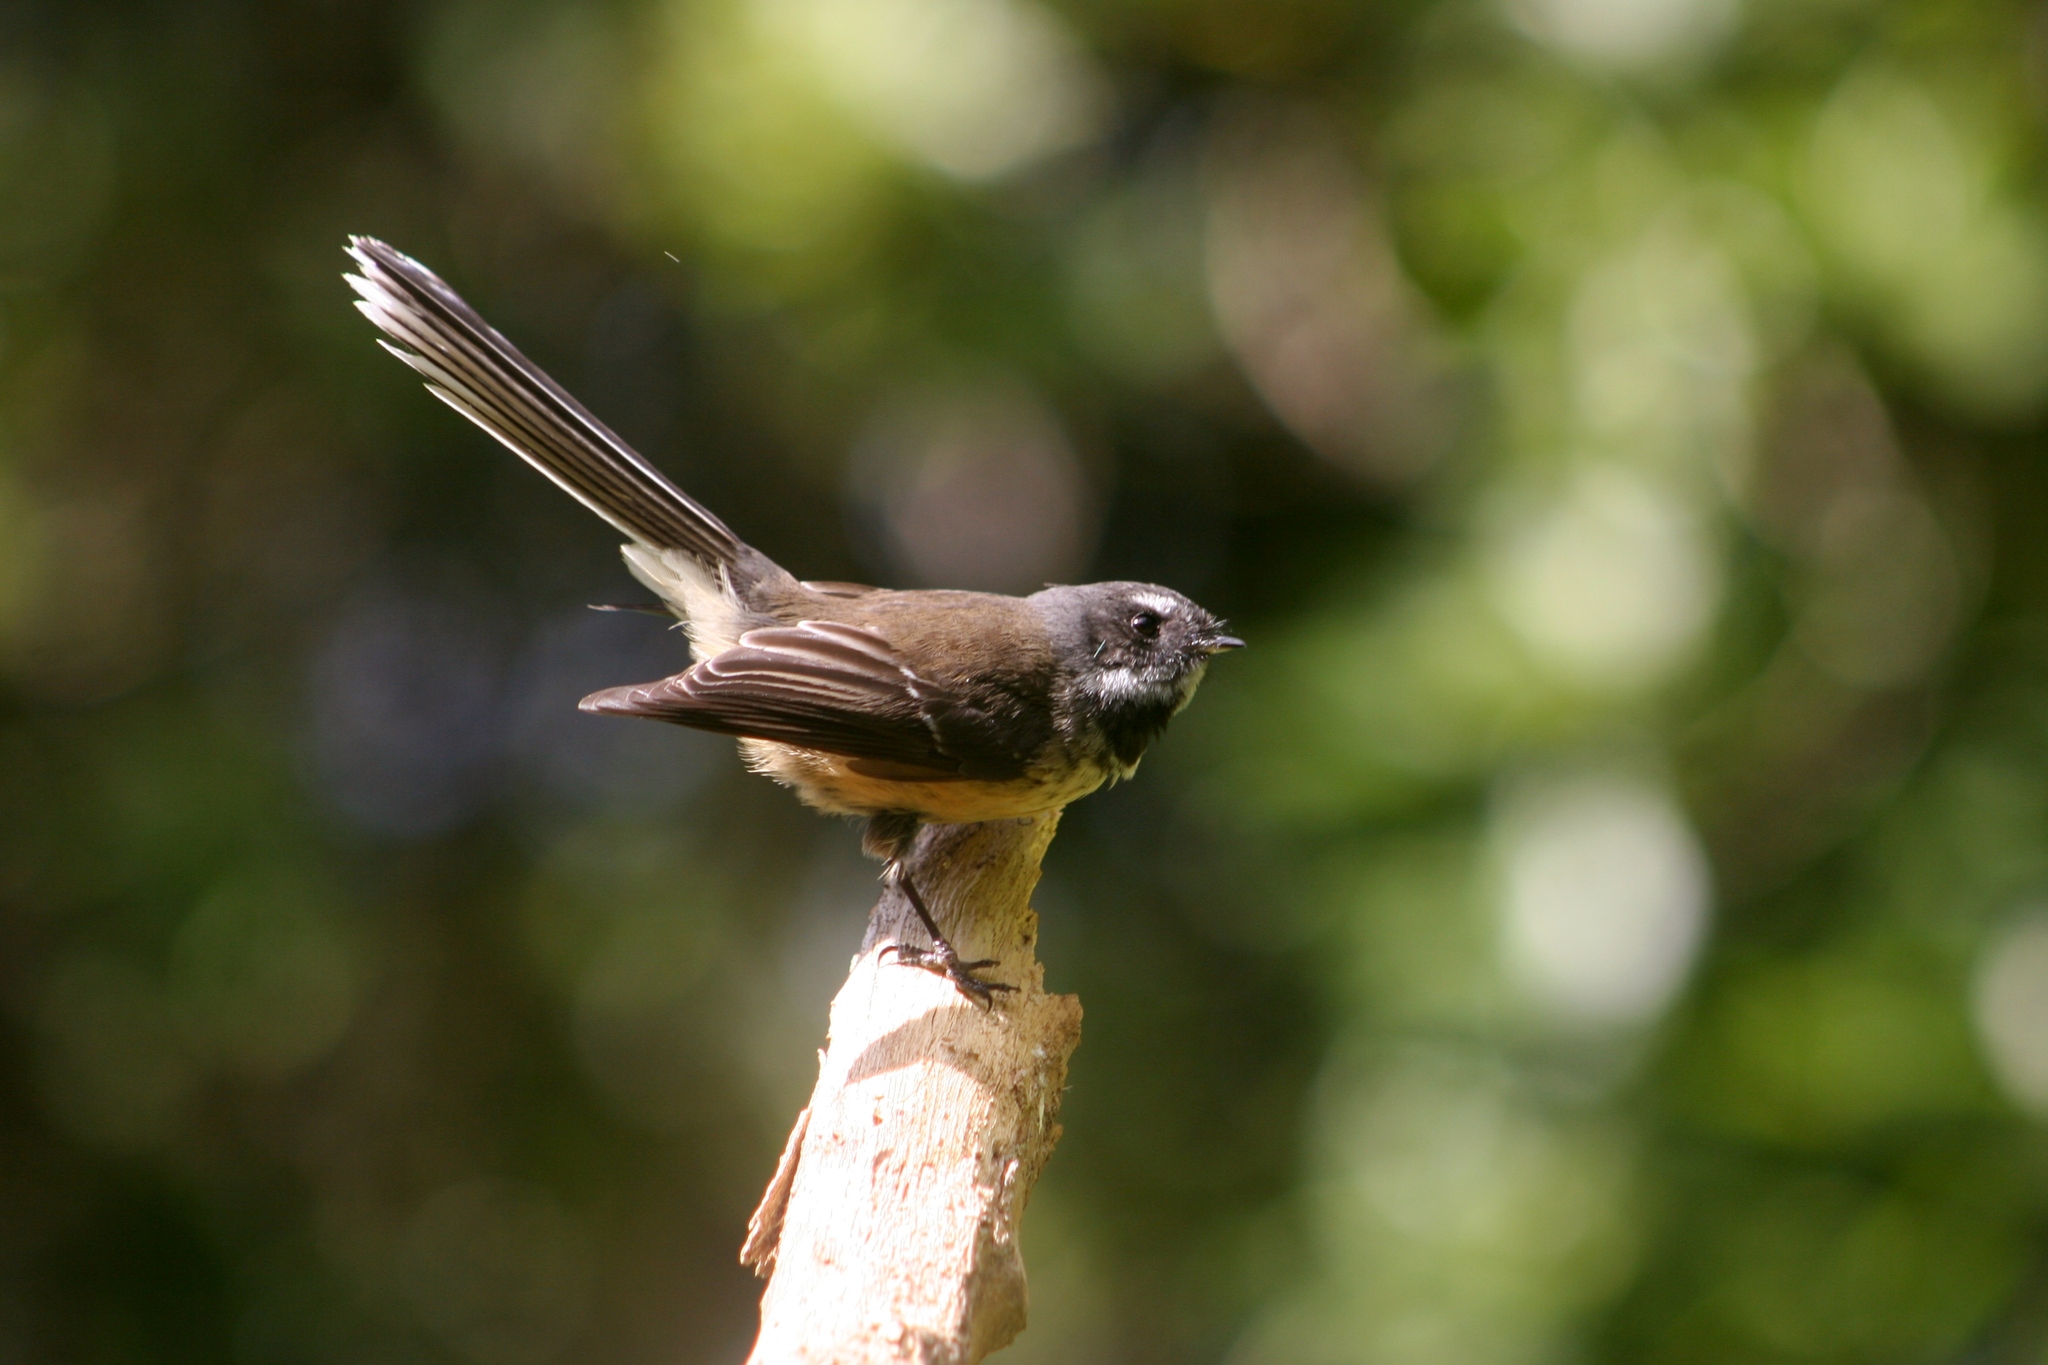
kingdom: Animalia
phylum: Chordata
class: Aves
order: Passeriformes
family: Rhipiduridae
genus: Rhipidura
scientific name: Rhipidura fuliginosa
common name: New zealand fantail
